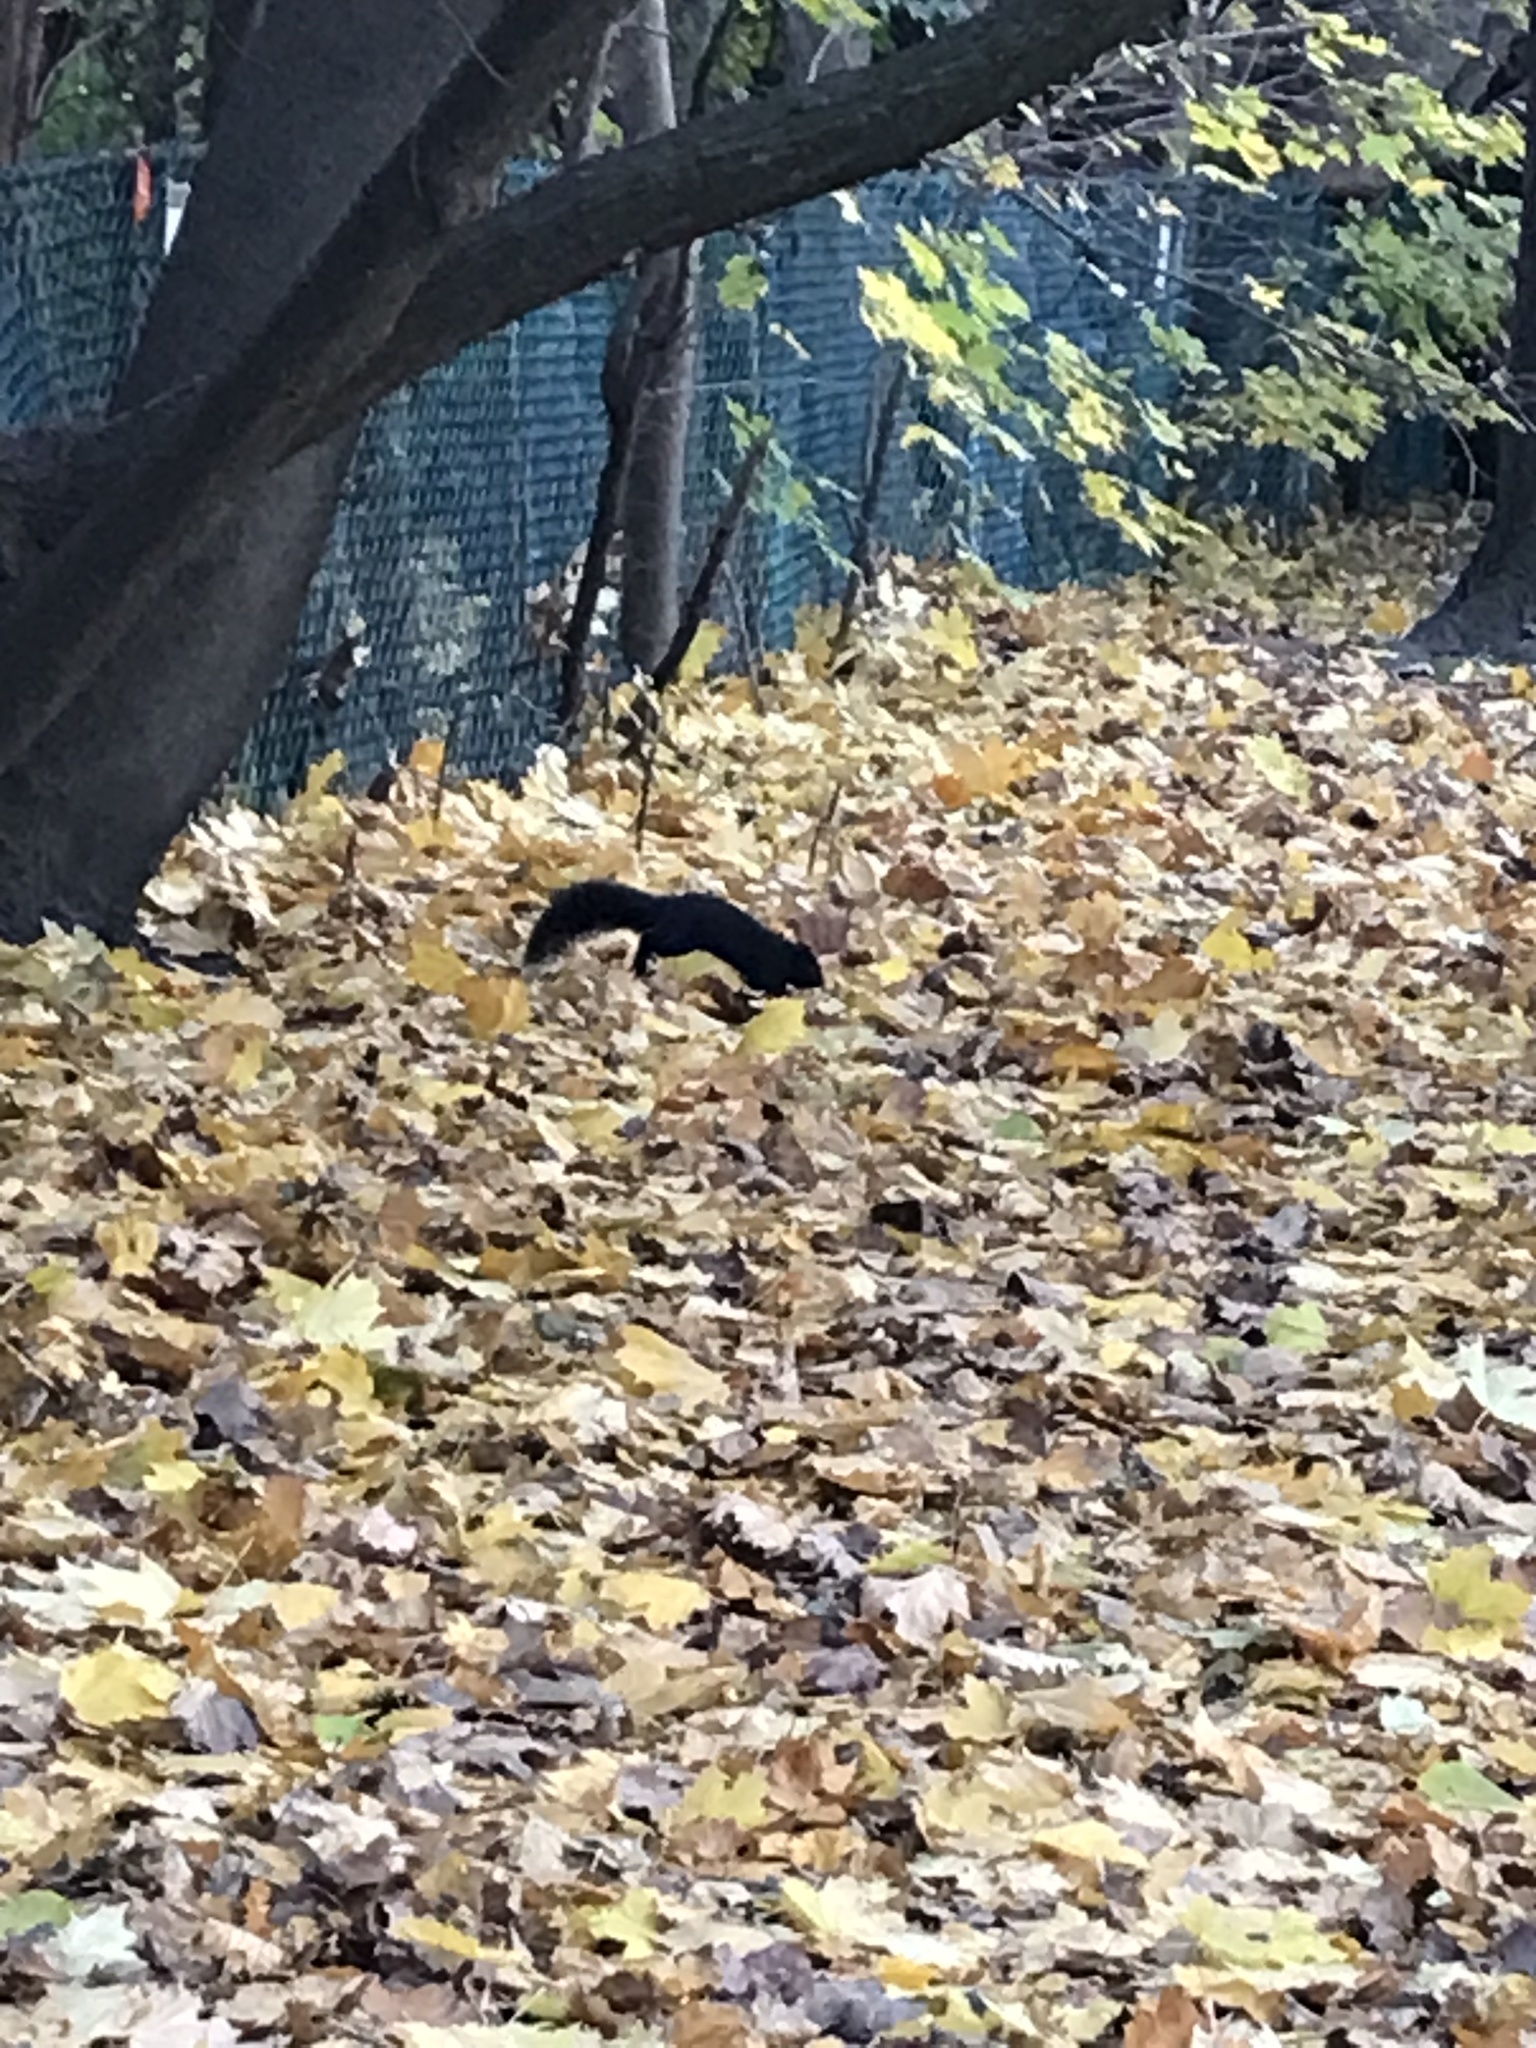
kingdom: Animalia
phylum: Chordata
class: Mammalia
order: Rodentia
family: Sciuridae
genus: Sciurus
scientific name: Sciurus carolinensis
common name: Eastern gray squirrel
